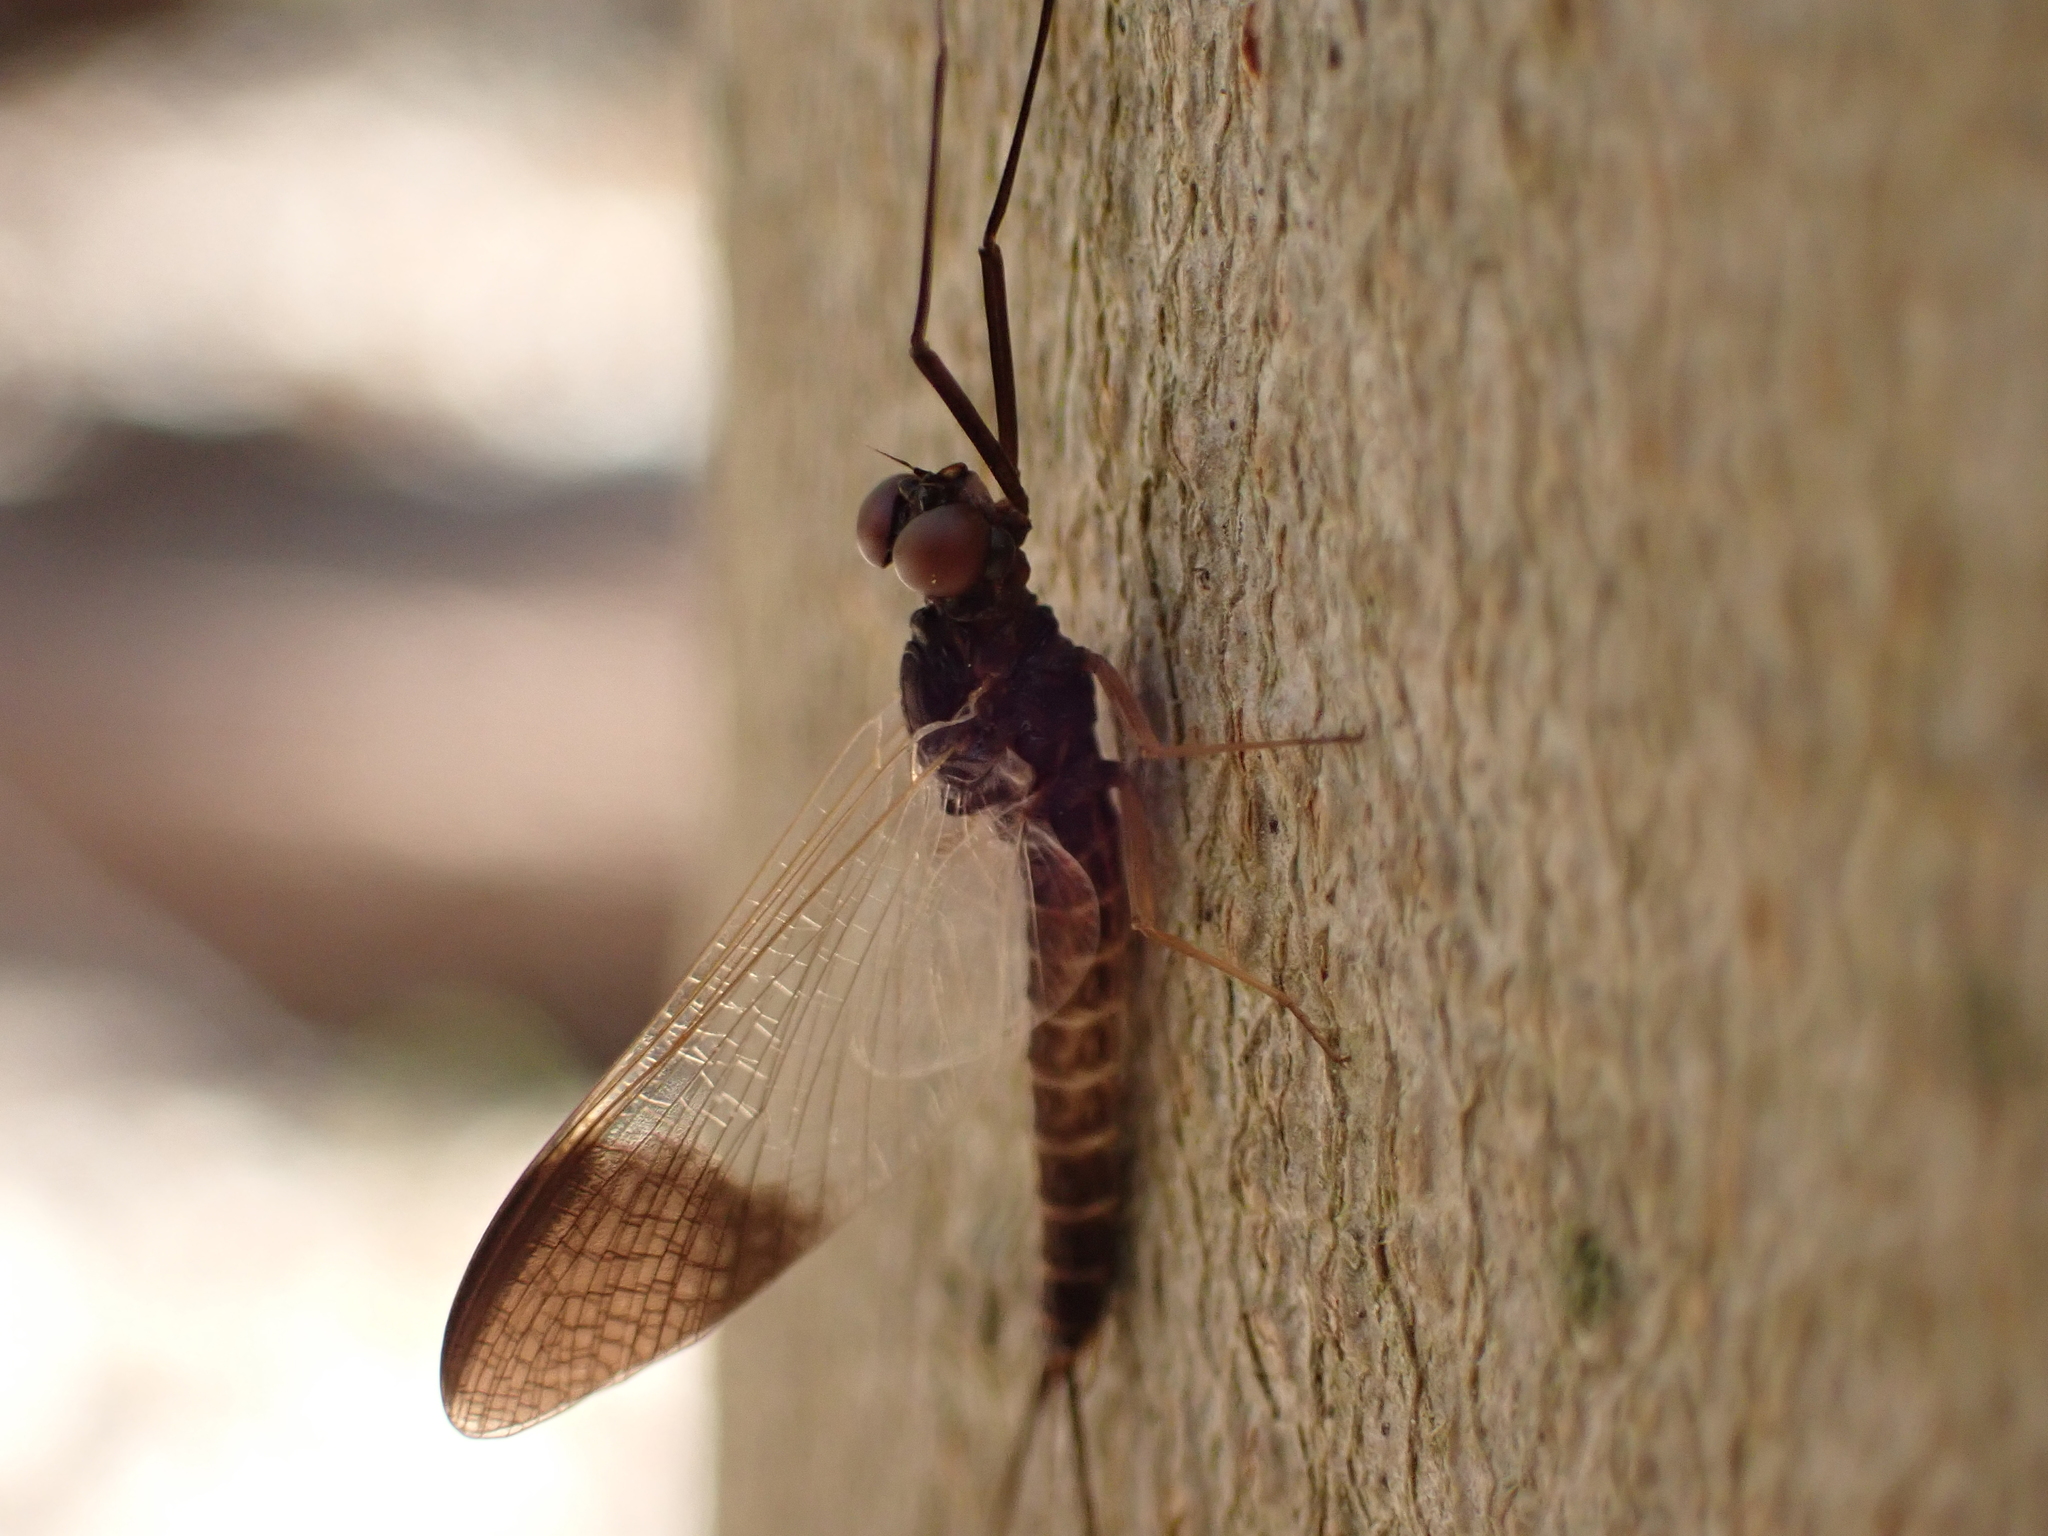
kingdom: Animalia
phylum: Arthropoda
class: Insecta
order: Ephemeroptera
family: Leptophlebiidae
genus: Leptophlebia
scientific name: Leptophlebia nebulosa
